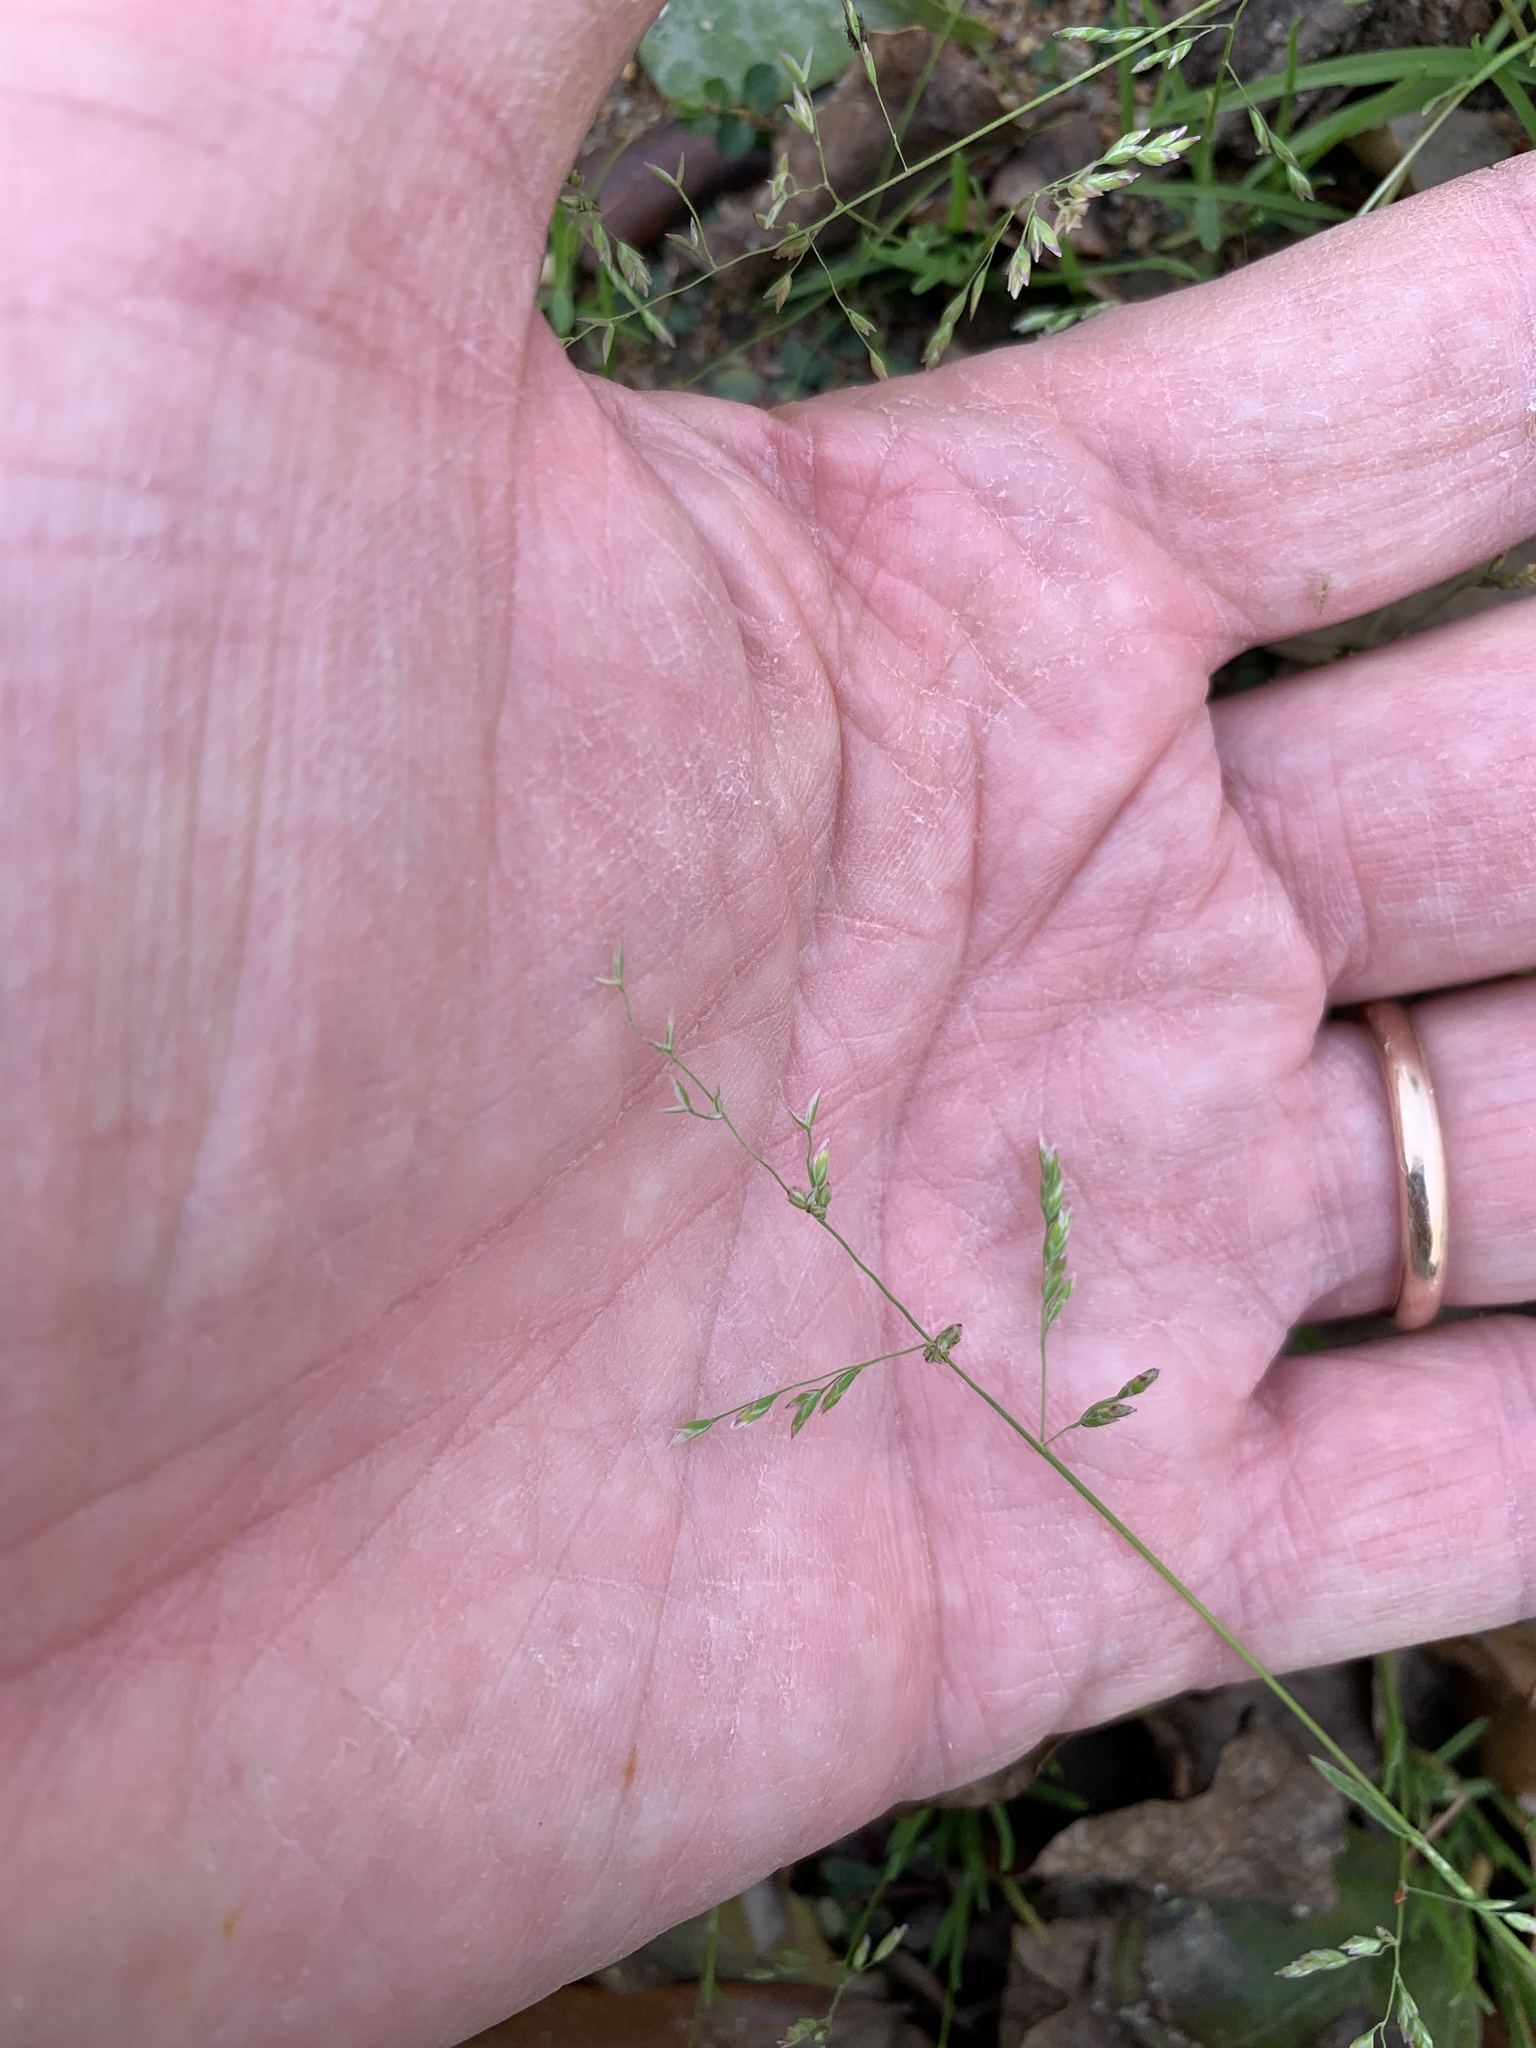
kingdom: Plantae
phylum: Tracheophyta
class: Liliopsida
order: Poales
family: Poaceae
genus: Poa
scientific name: Poa annua
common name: Annual bluegrass
